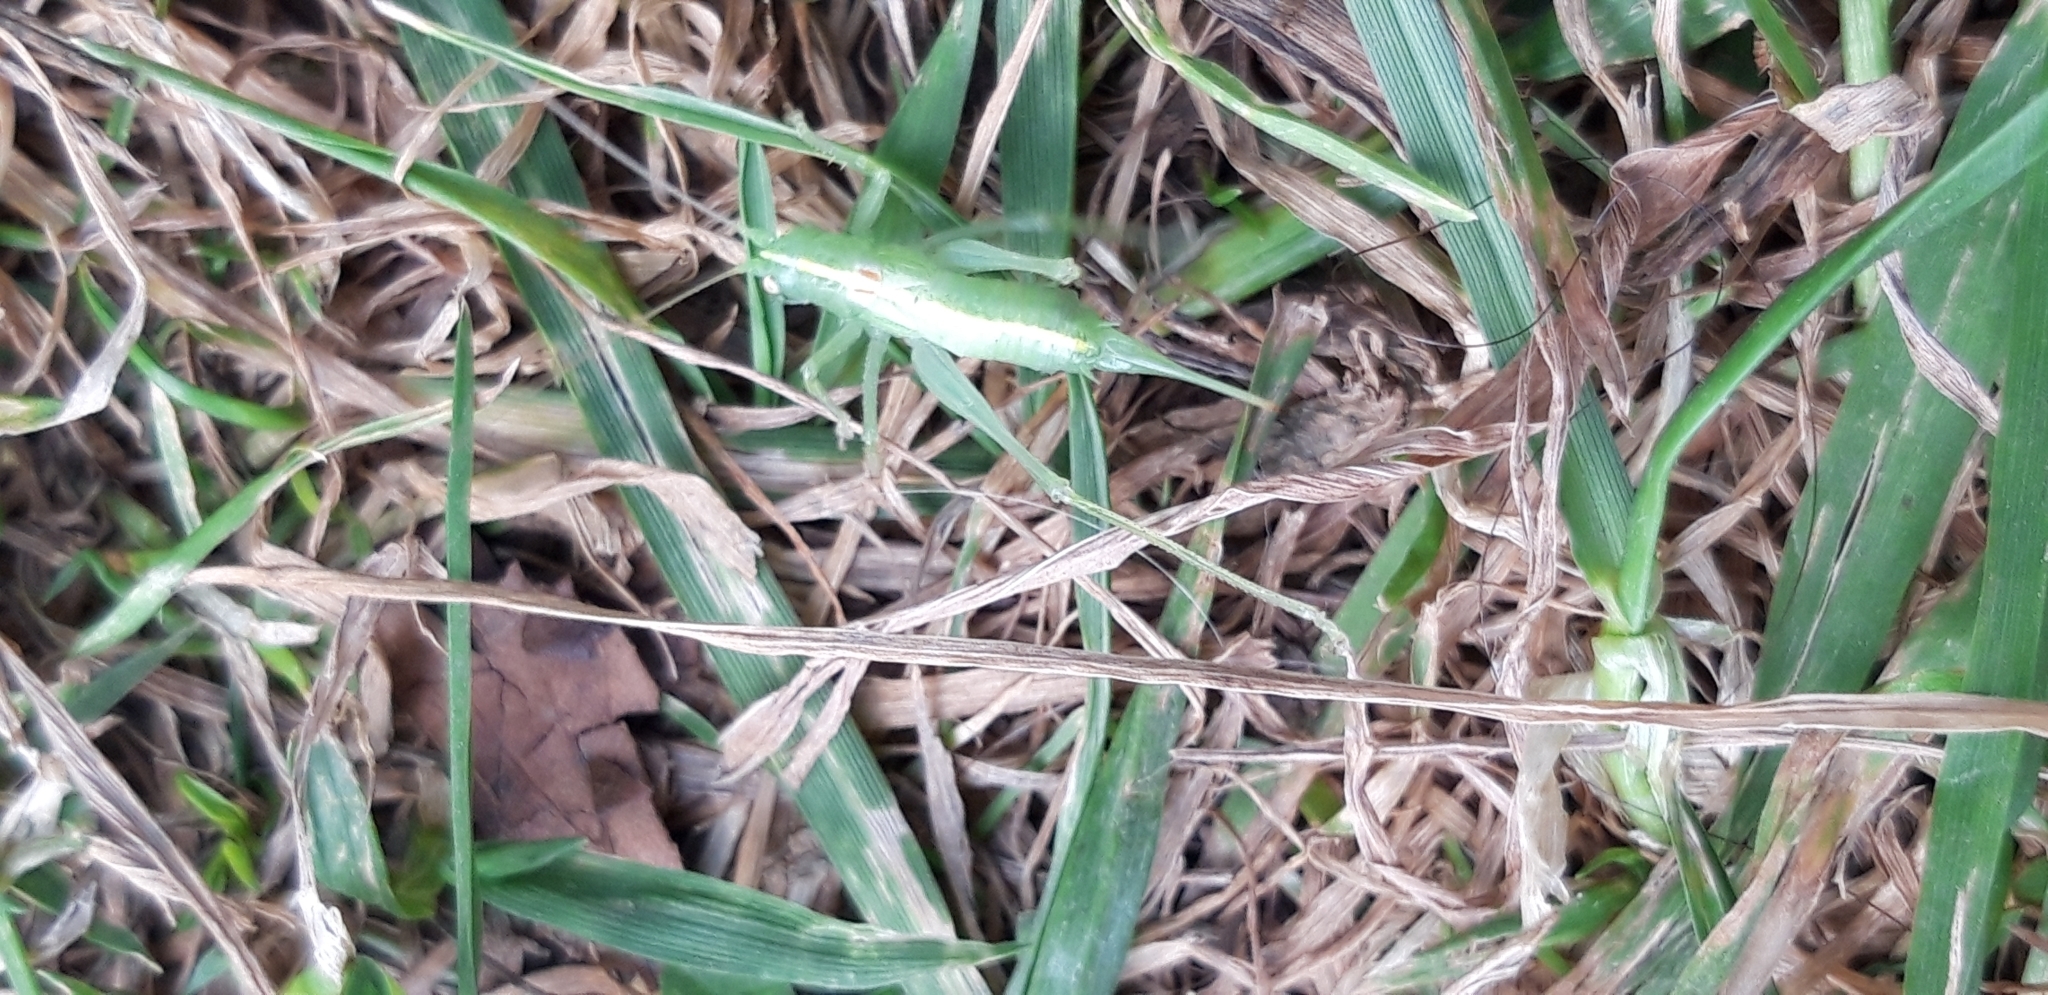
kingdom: Animalia
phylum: Arthropoda
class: Insecta
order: Orthoptera
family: Tettigoniidae
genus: Meconema
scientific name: Meconema meridionale
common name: Southern oak bush-cricket
